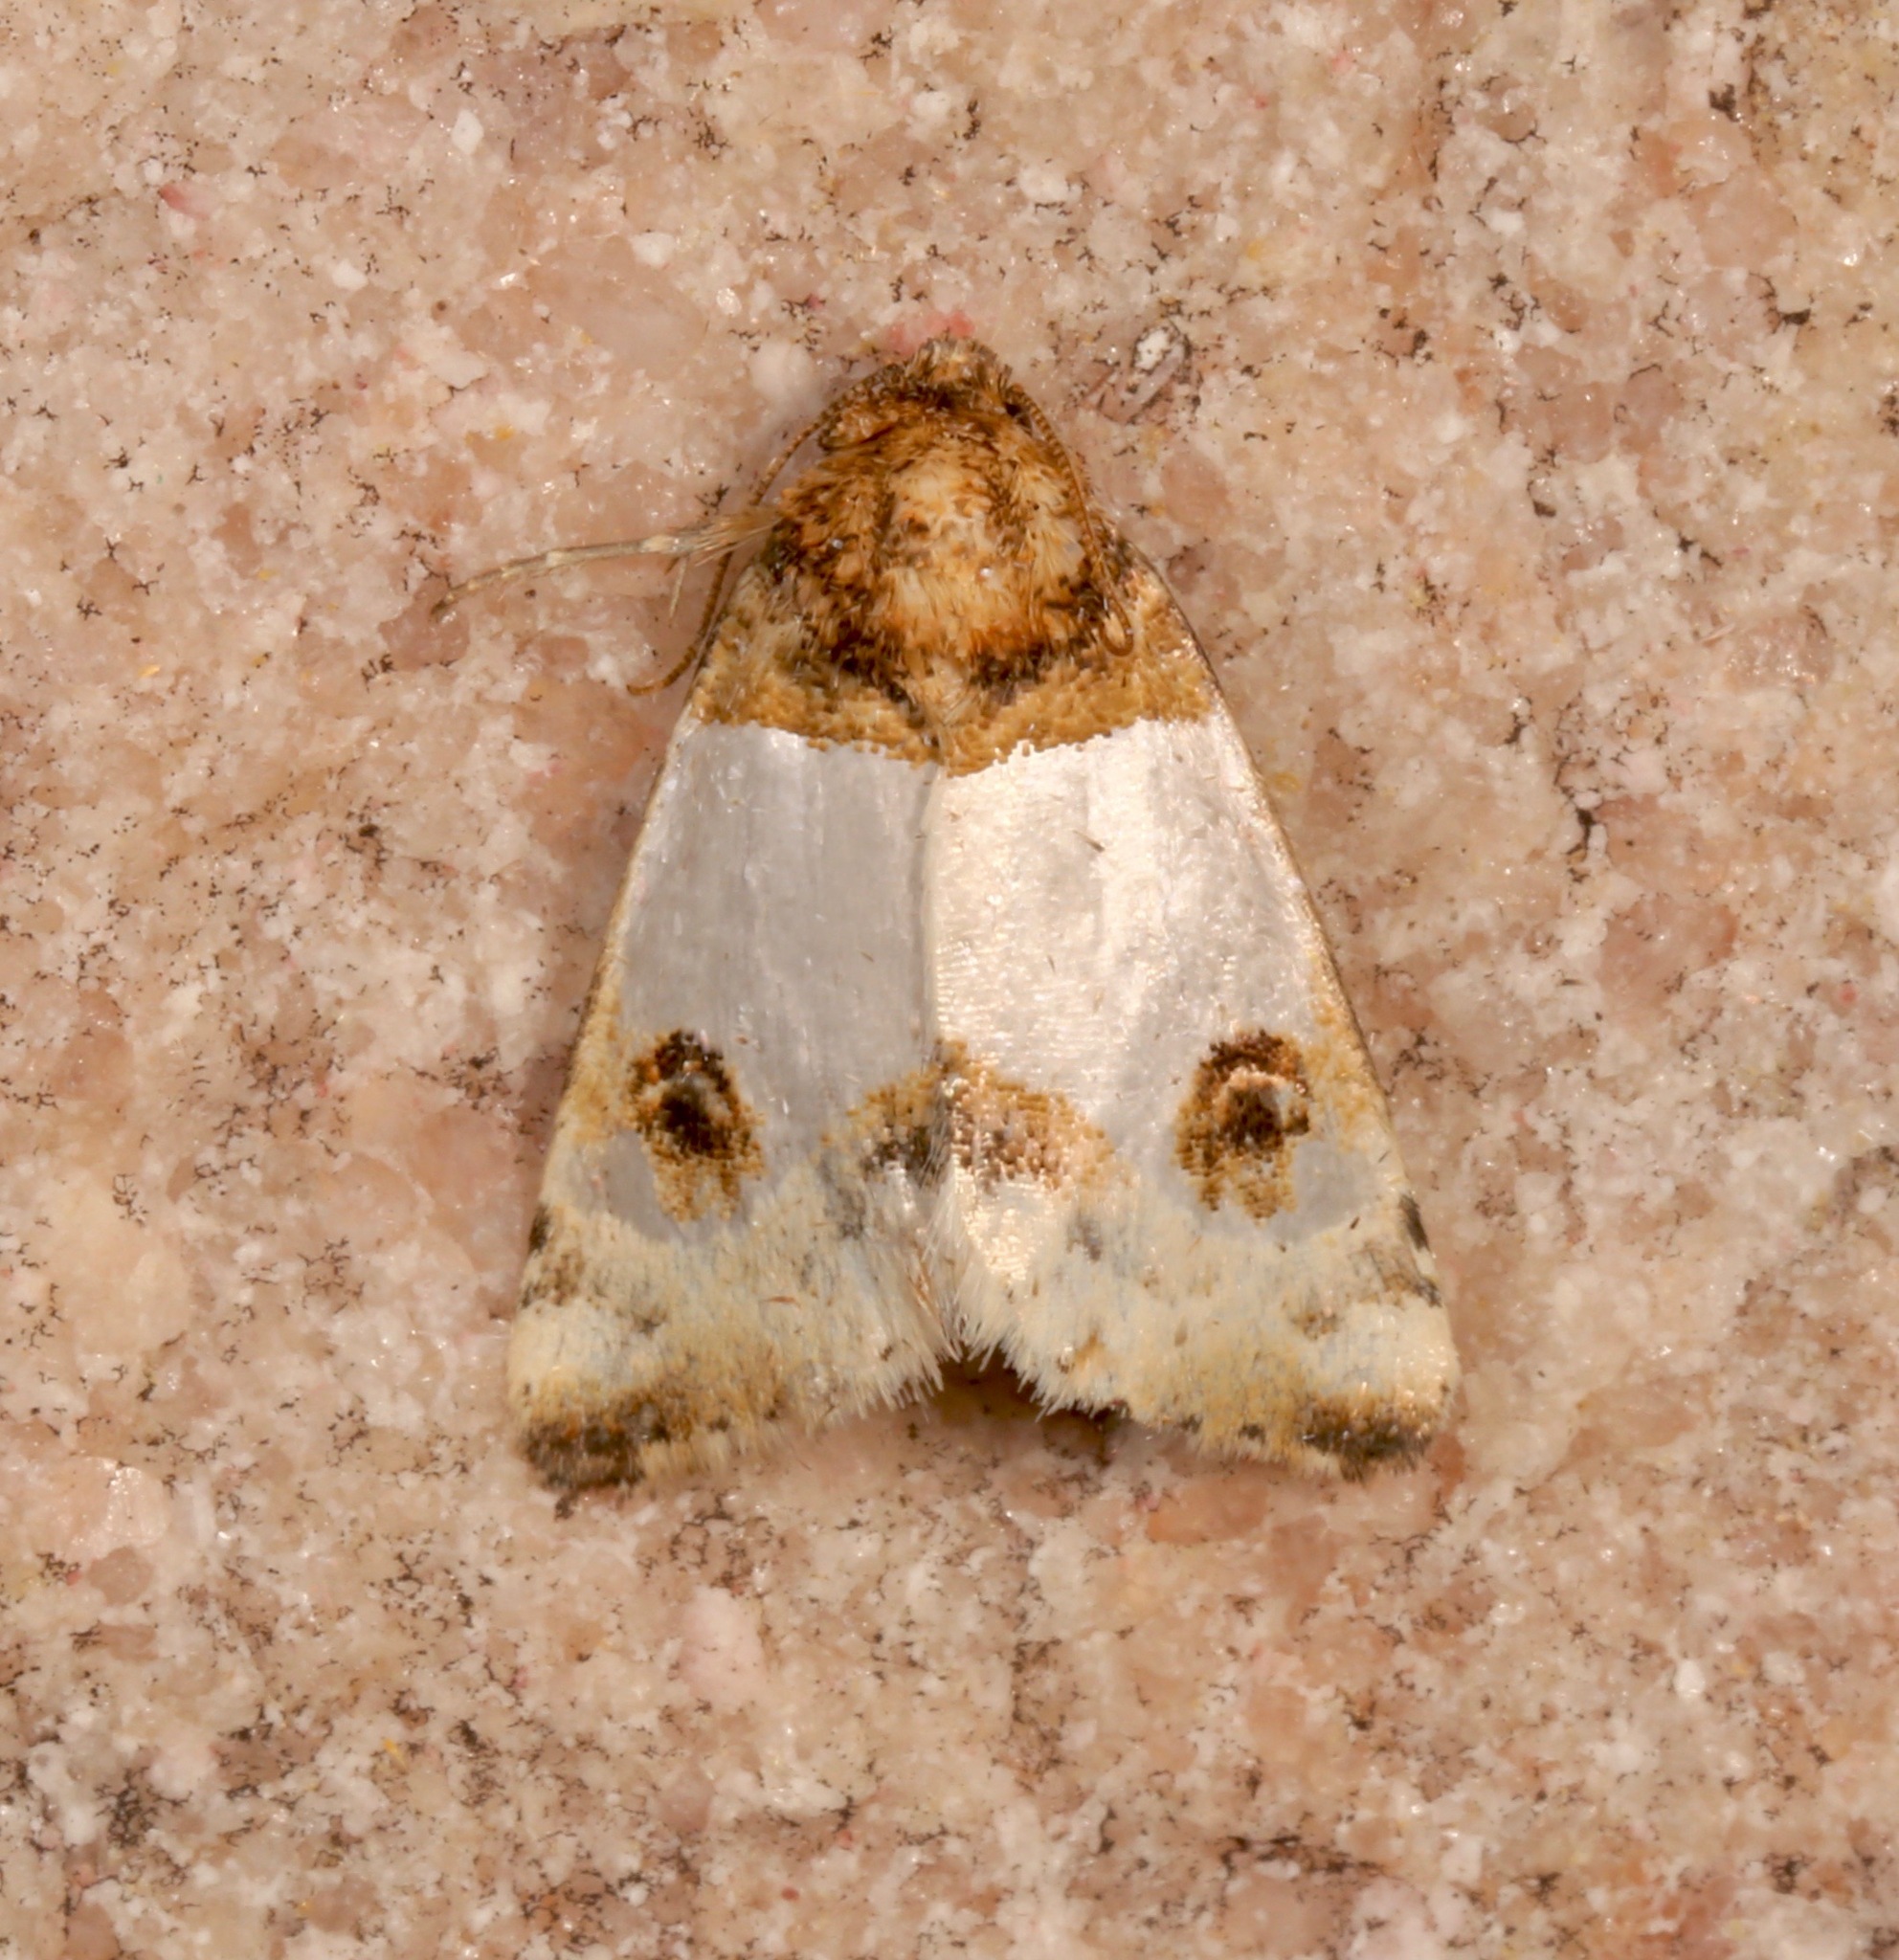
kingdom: Animalia
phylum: Arthropoda
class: Insecta
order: Lepidoptera
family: Noctuidae
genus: Schinia
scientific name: Schinia oculata
